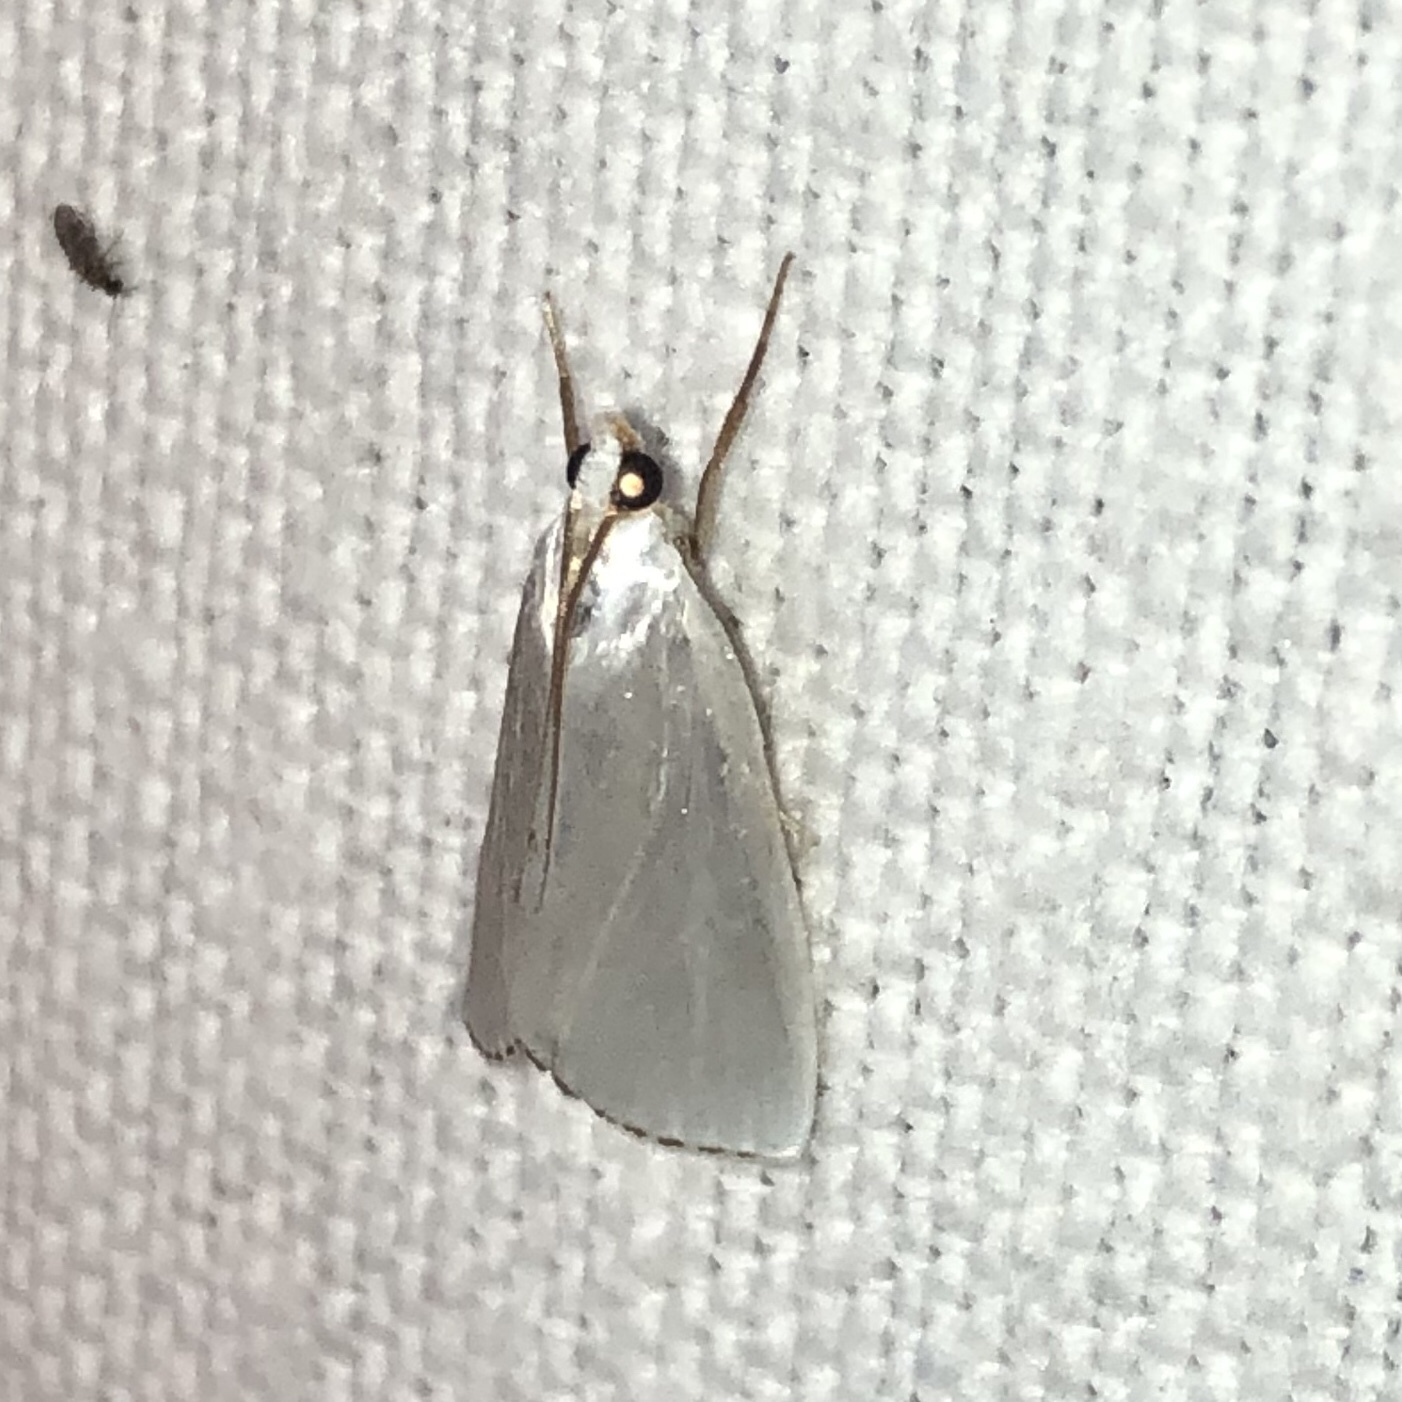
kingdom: Animalia
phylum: Arthropoda
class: Insecta
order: Lepidoptera
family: Crambidae
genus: Argyria
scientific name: Argyria nivalis
